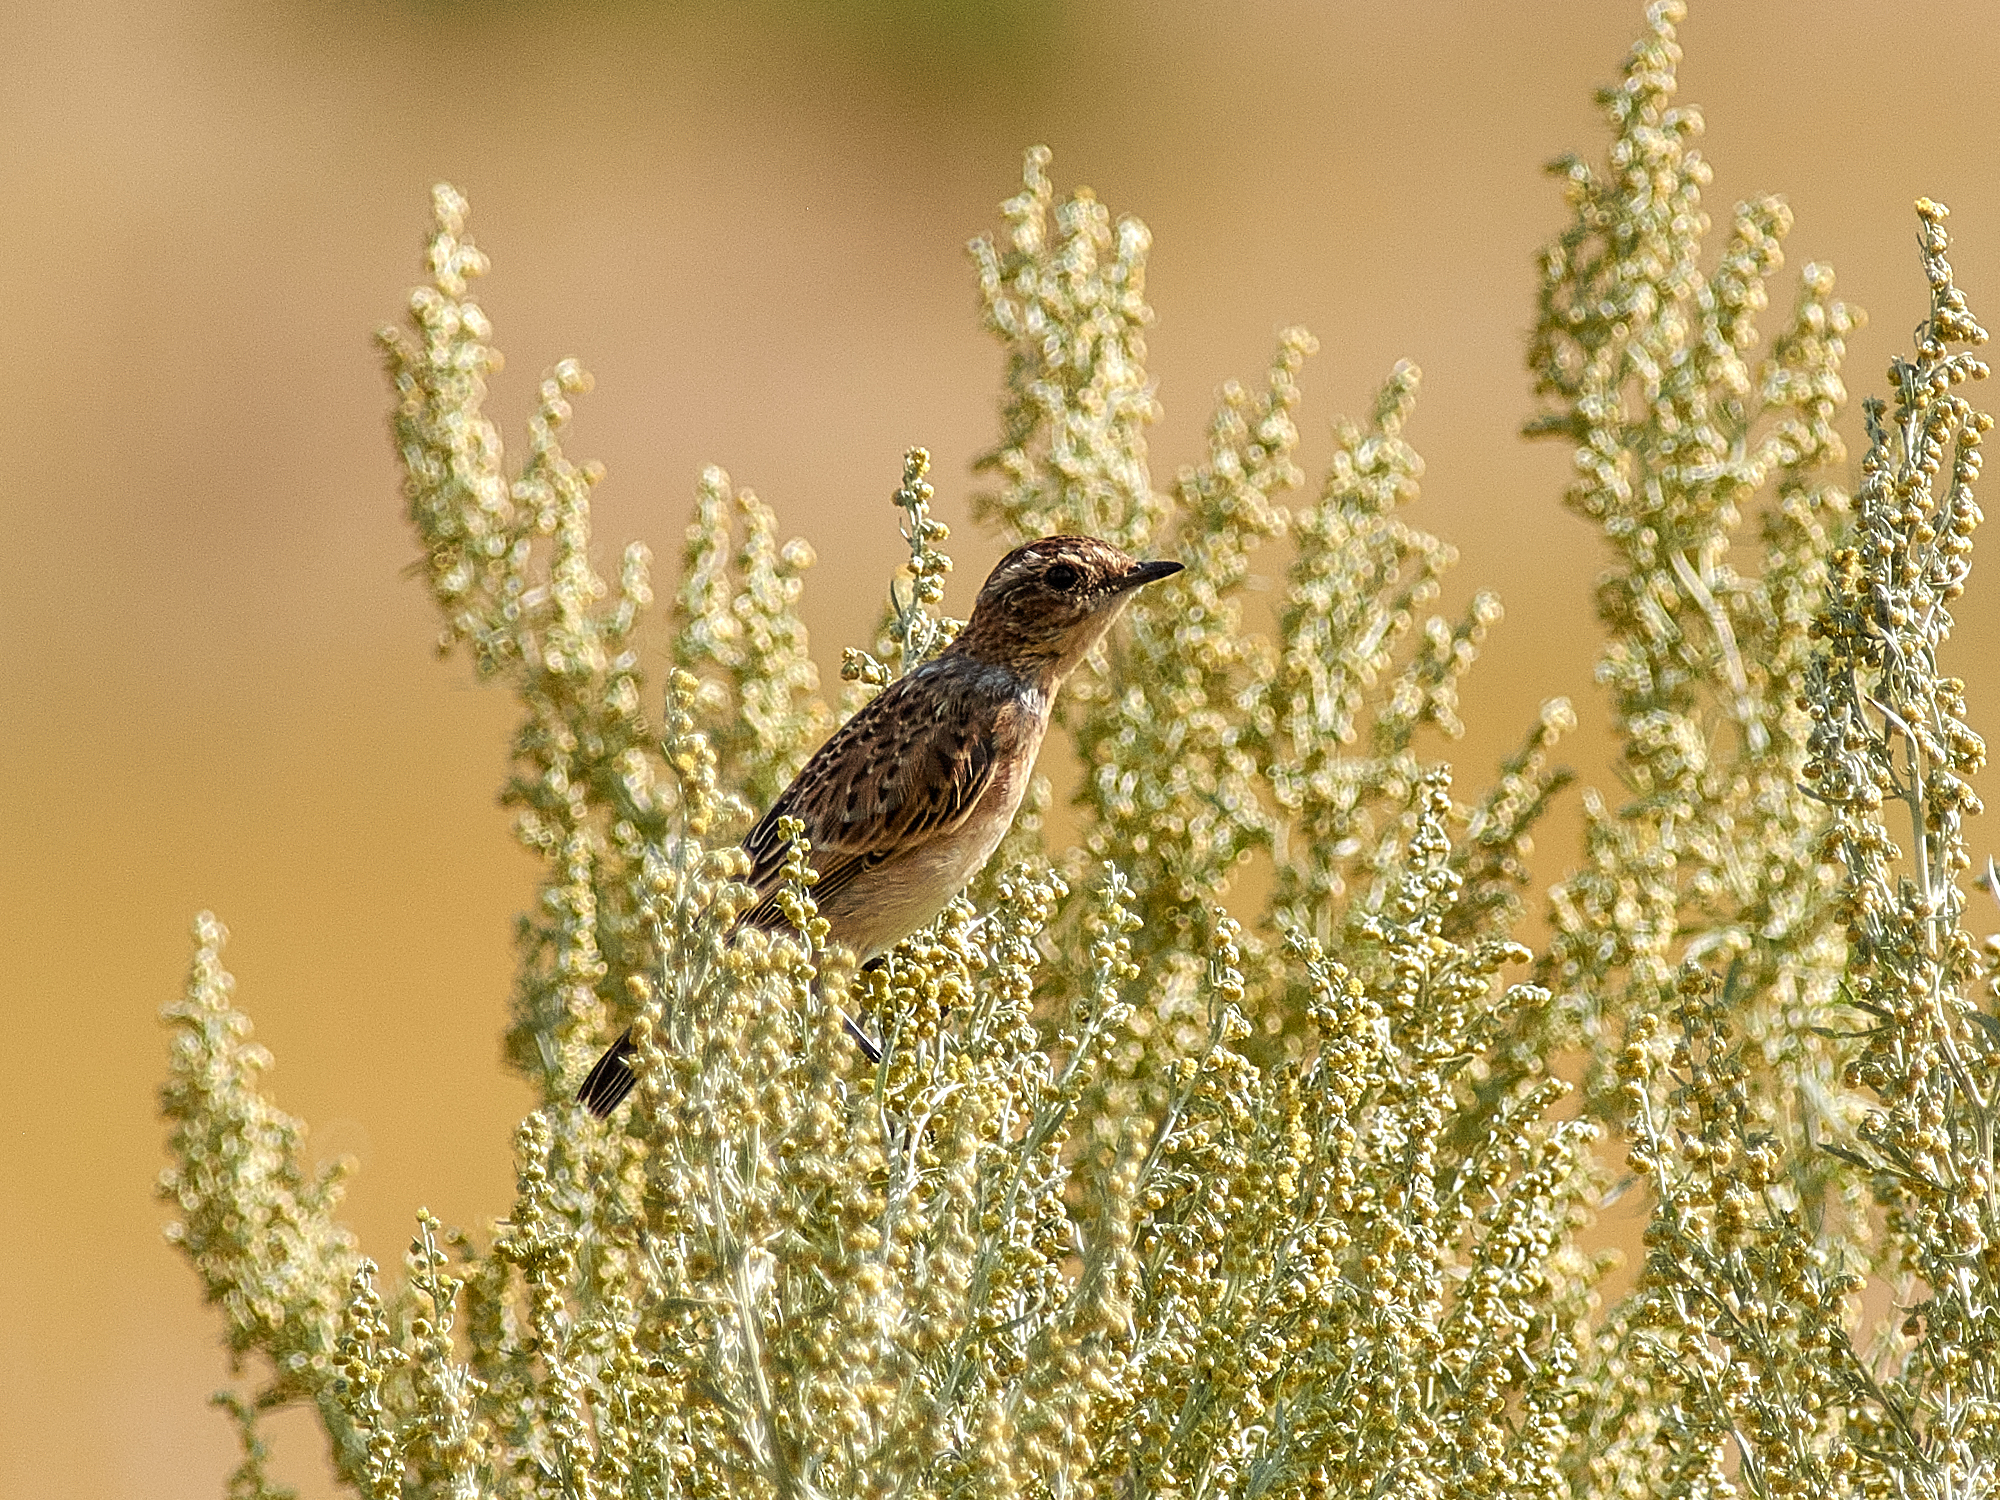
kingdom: Animalia
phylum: Chordata
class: Aves
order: Passeriformes
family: Muscicapidae
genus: Saxicola
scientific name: Saxicola rubetra
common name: Whinchat
